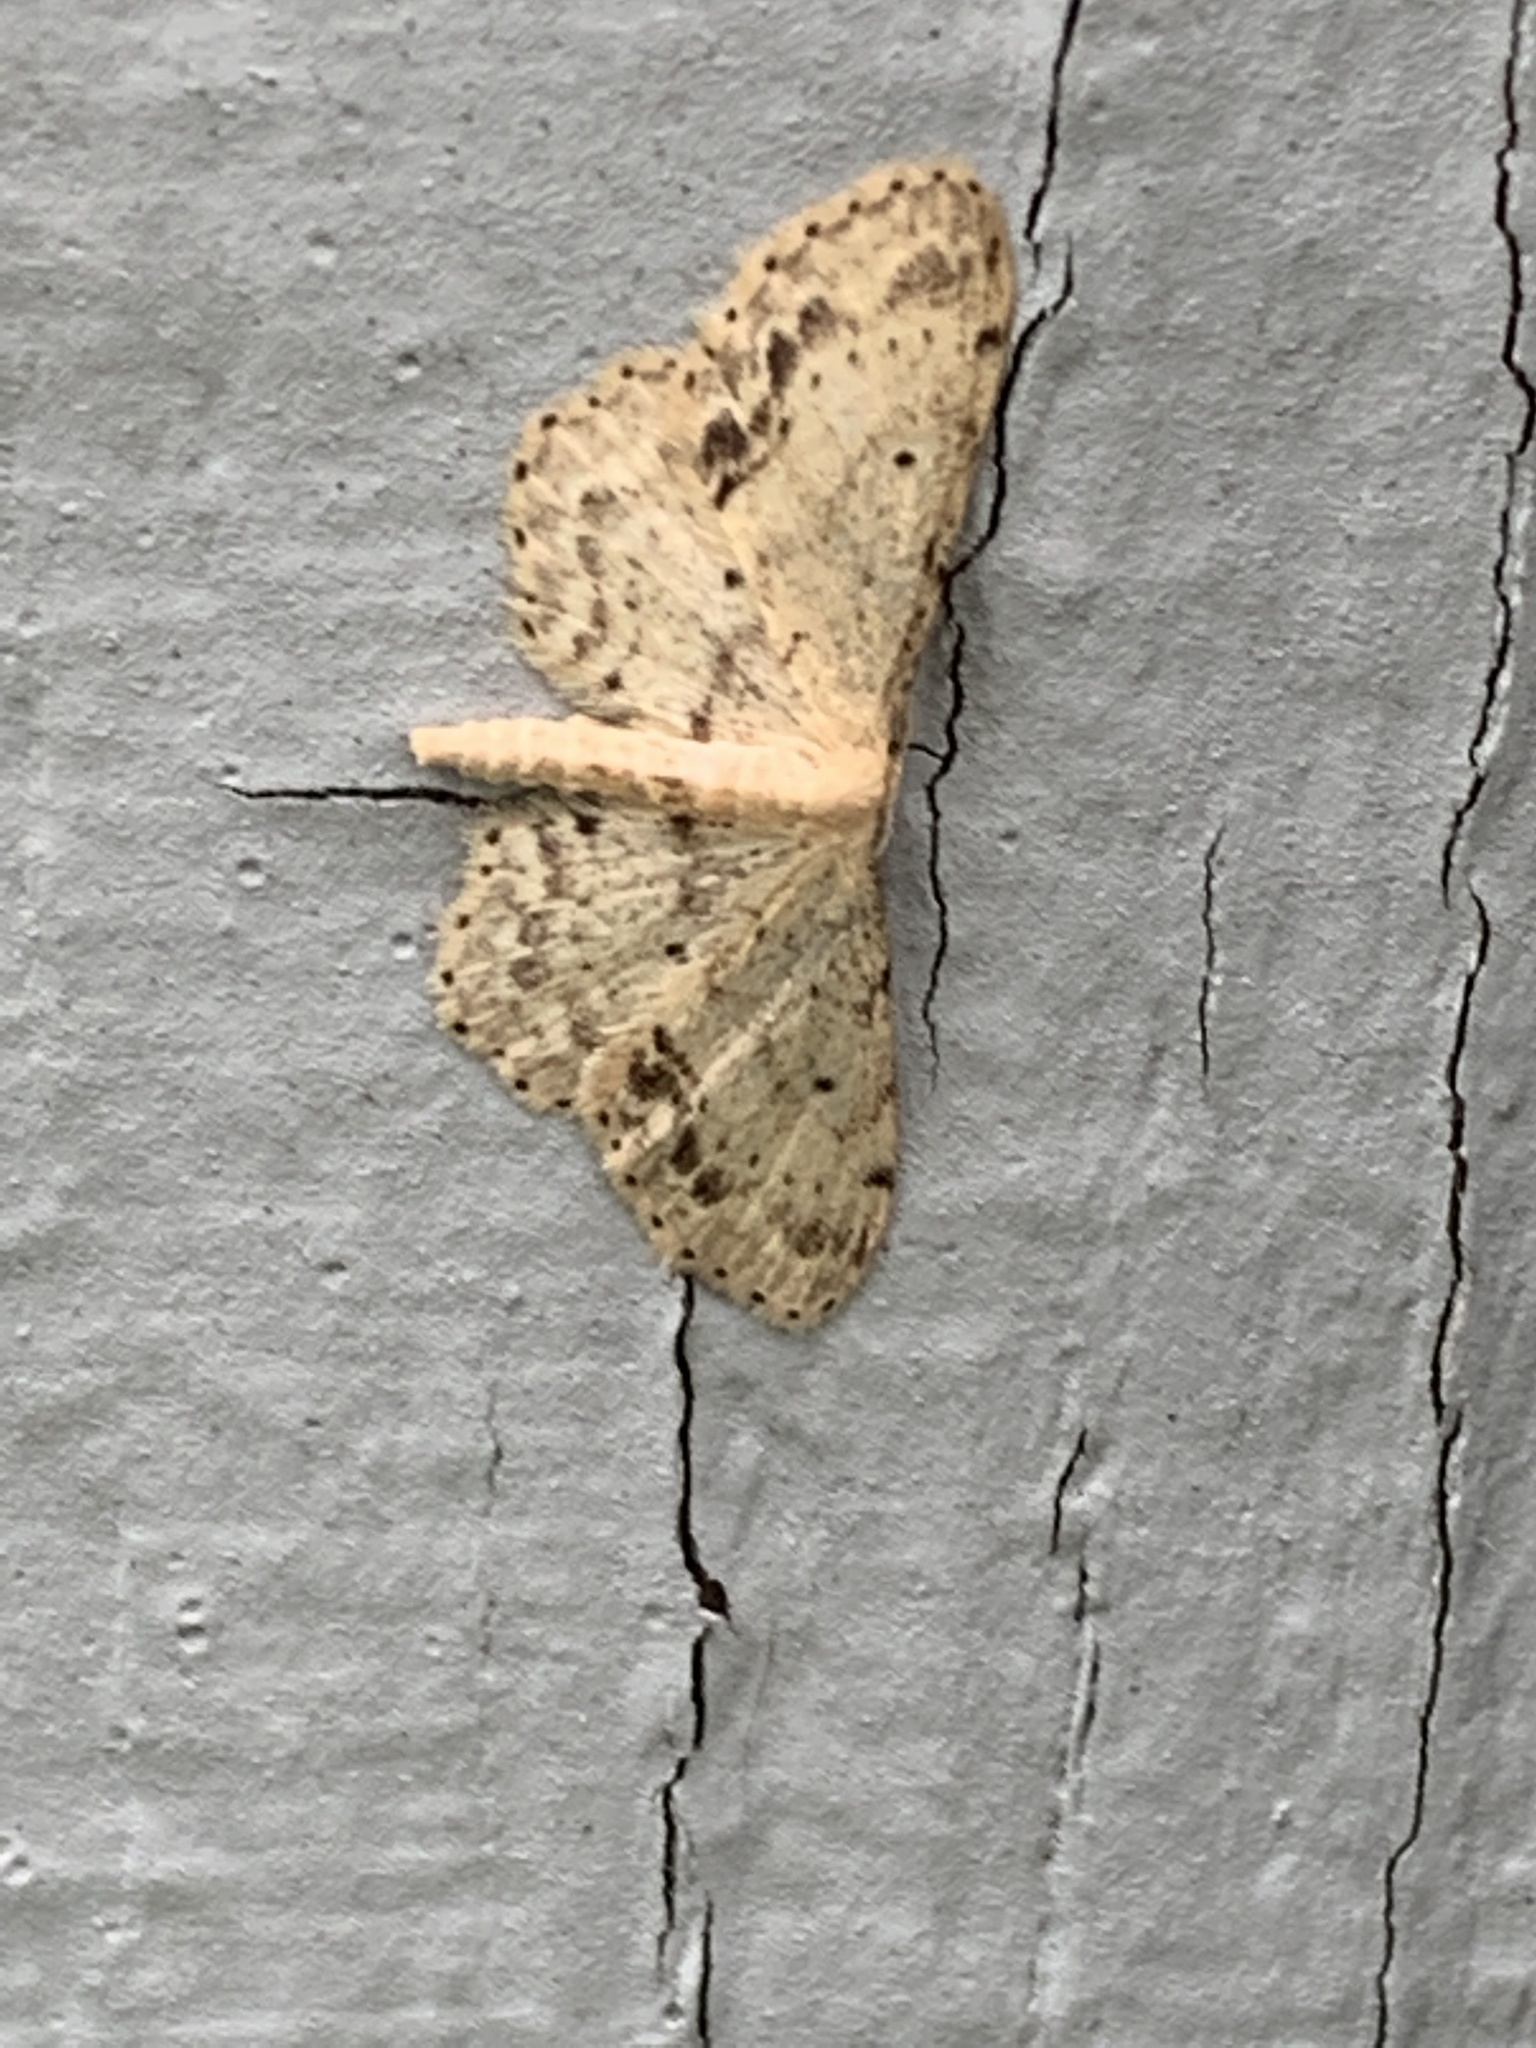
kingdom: Animalia
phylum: Arthropoda
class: Insecta
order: Lepidoptera
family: Geometridae
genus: Idaea
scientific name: Idaea dimidiata
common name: Single-dotted wave
